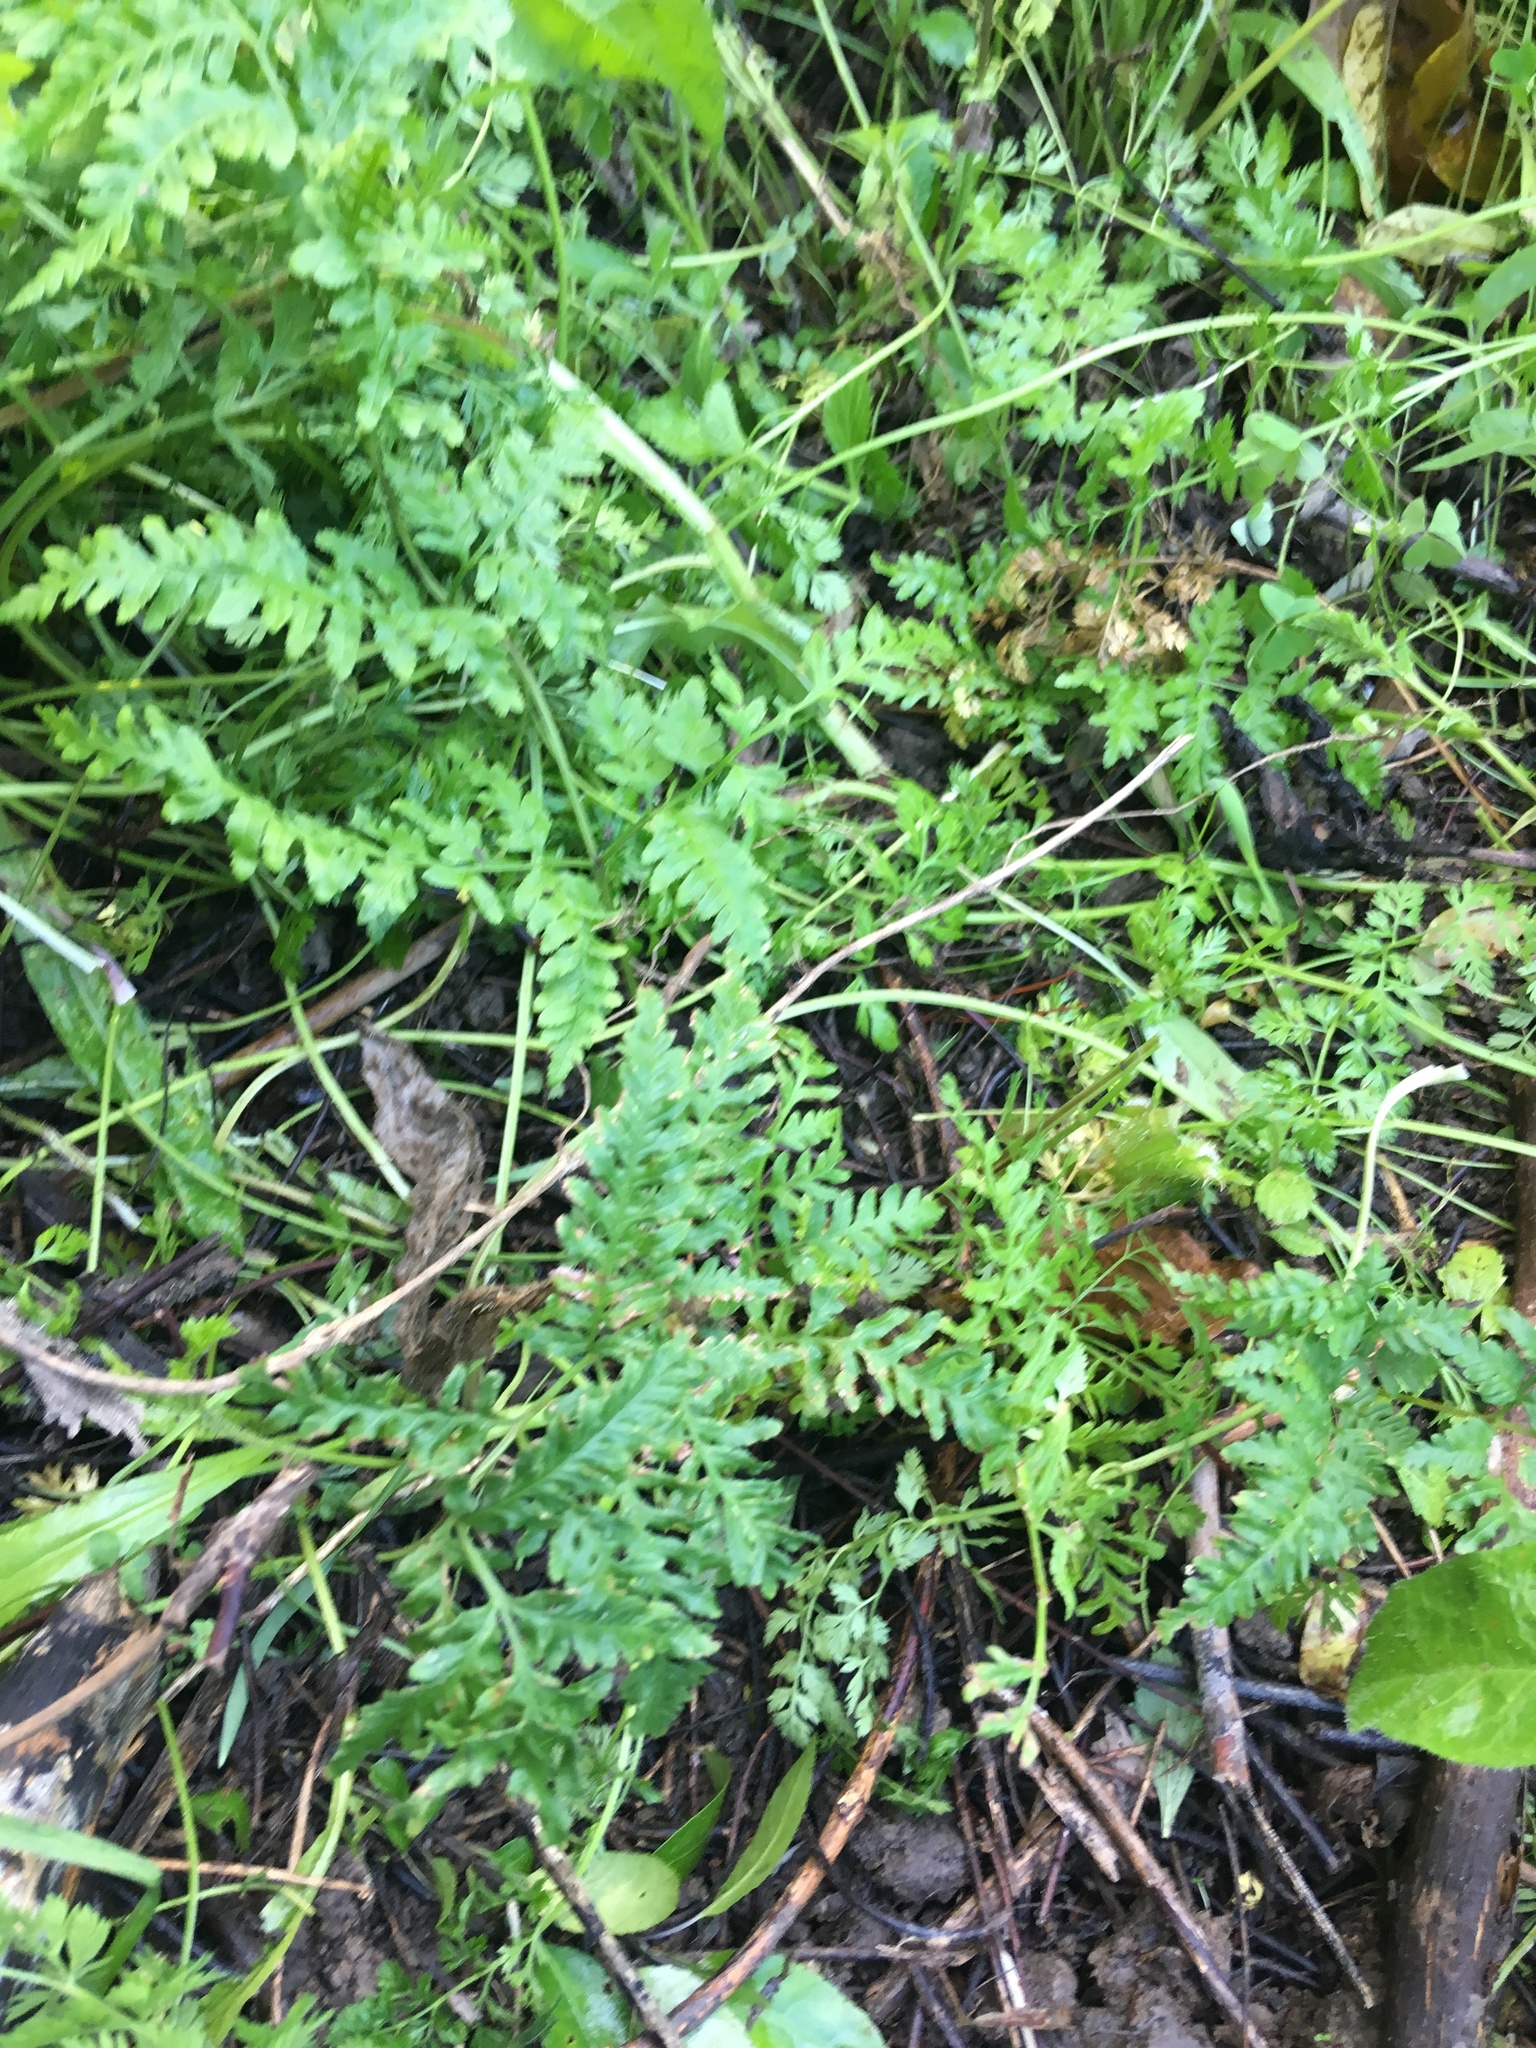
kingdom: Plantae
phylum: Tracheophyta
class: Polypodiopsida
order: Polypodiales
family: Pteridaceae
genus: Pteris
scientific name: Pteris tremula
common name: Australian brake
